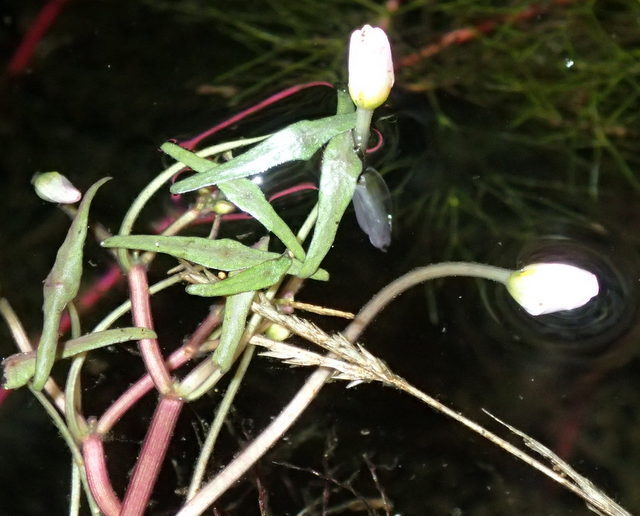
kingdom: Plantae
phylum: Tracheophyta
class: Magnoliopsida
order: Nymphaeales
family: Cabombaceae
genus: Cabomba
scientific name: Cabomba caroliniana
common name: Fanwort
